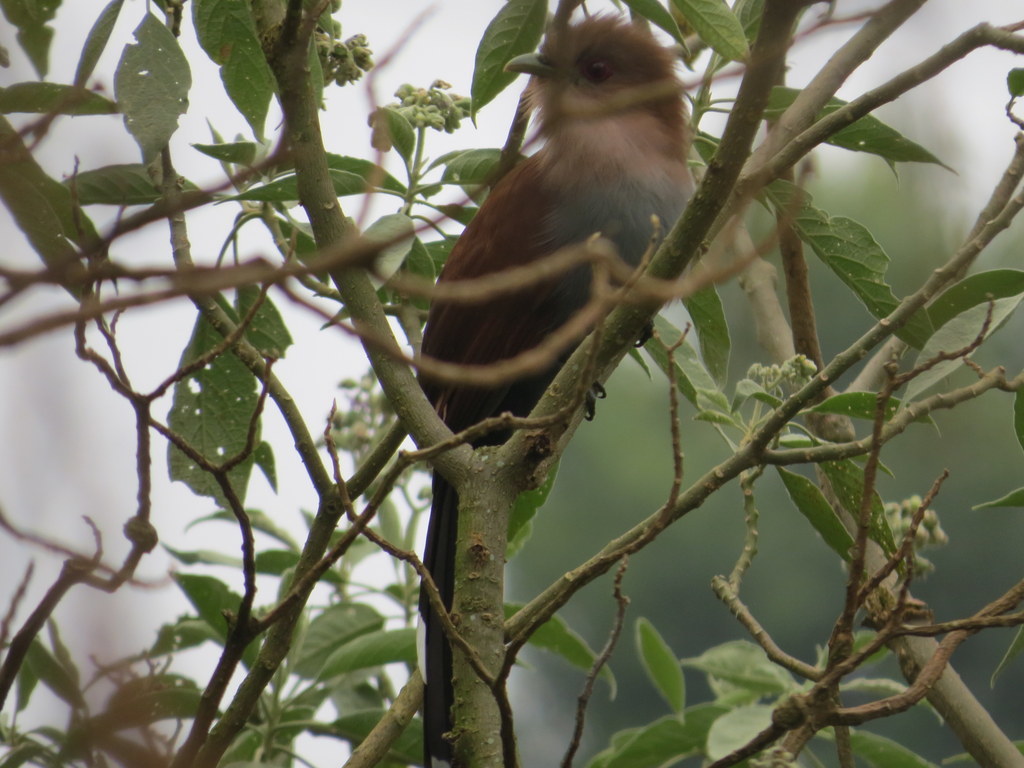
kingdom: Animalia
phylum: Chordata
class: Aves
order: Cuculiformes
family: Cuculidae
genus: Piaya
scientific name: Piaya cayana
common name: Squirrel cuckoo
